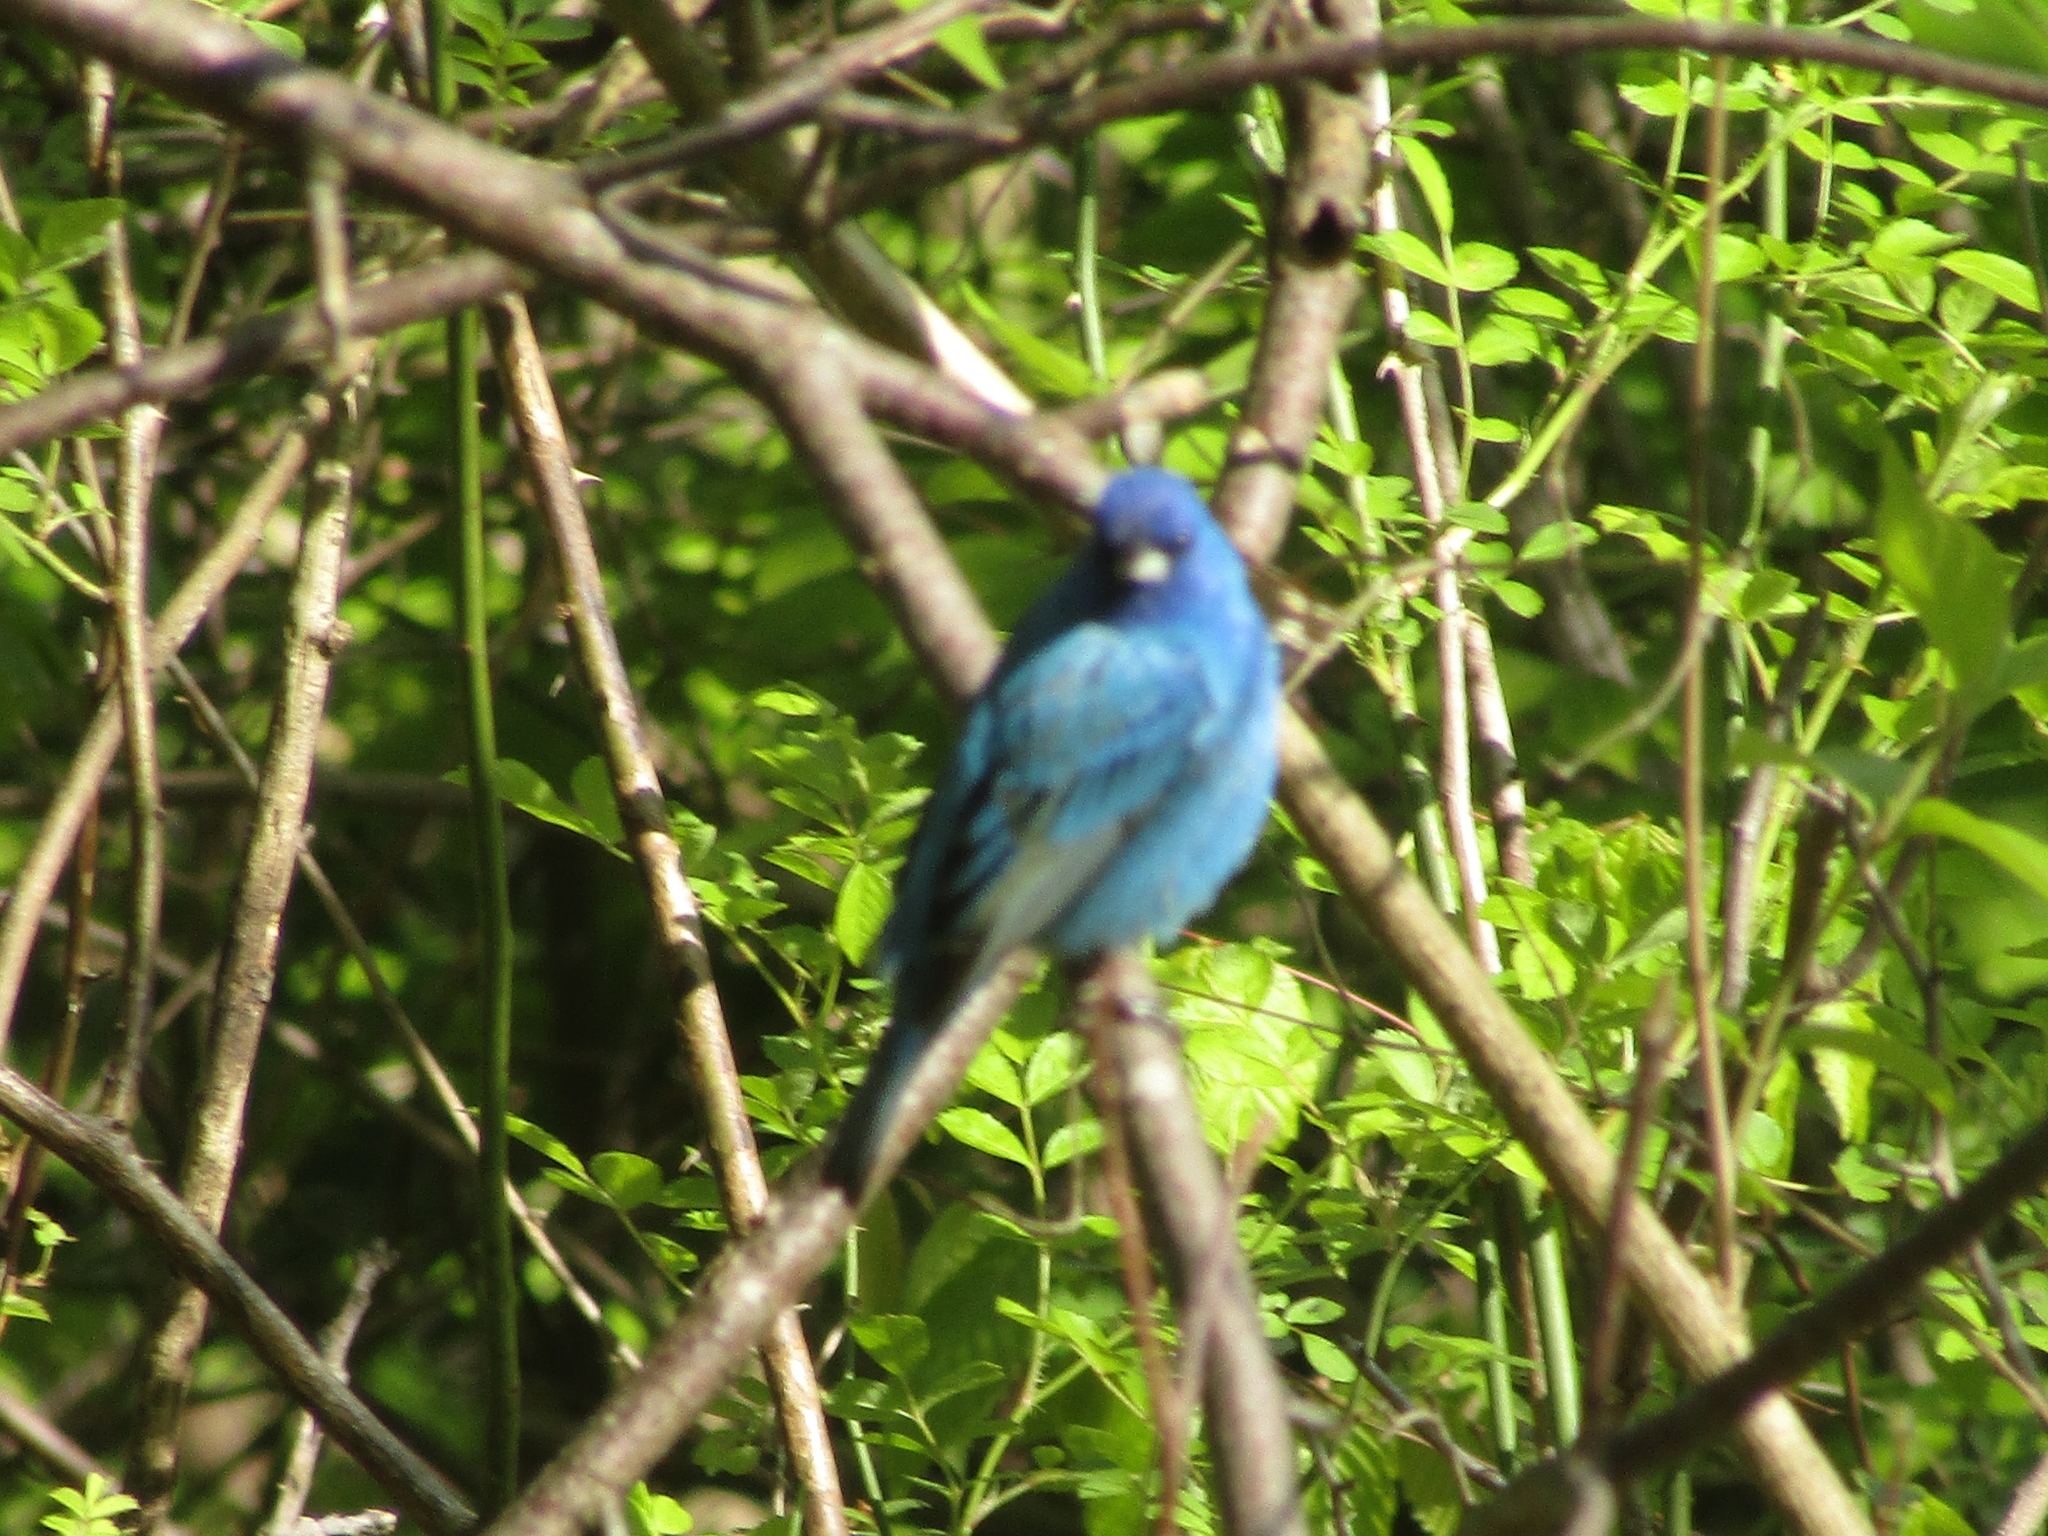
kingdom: Animalia
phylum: Chordata
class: Aves
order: Passeriformes
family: Cardinalidae
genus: Passerina
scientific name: Passerina cyanea
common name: Indigo bunting
